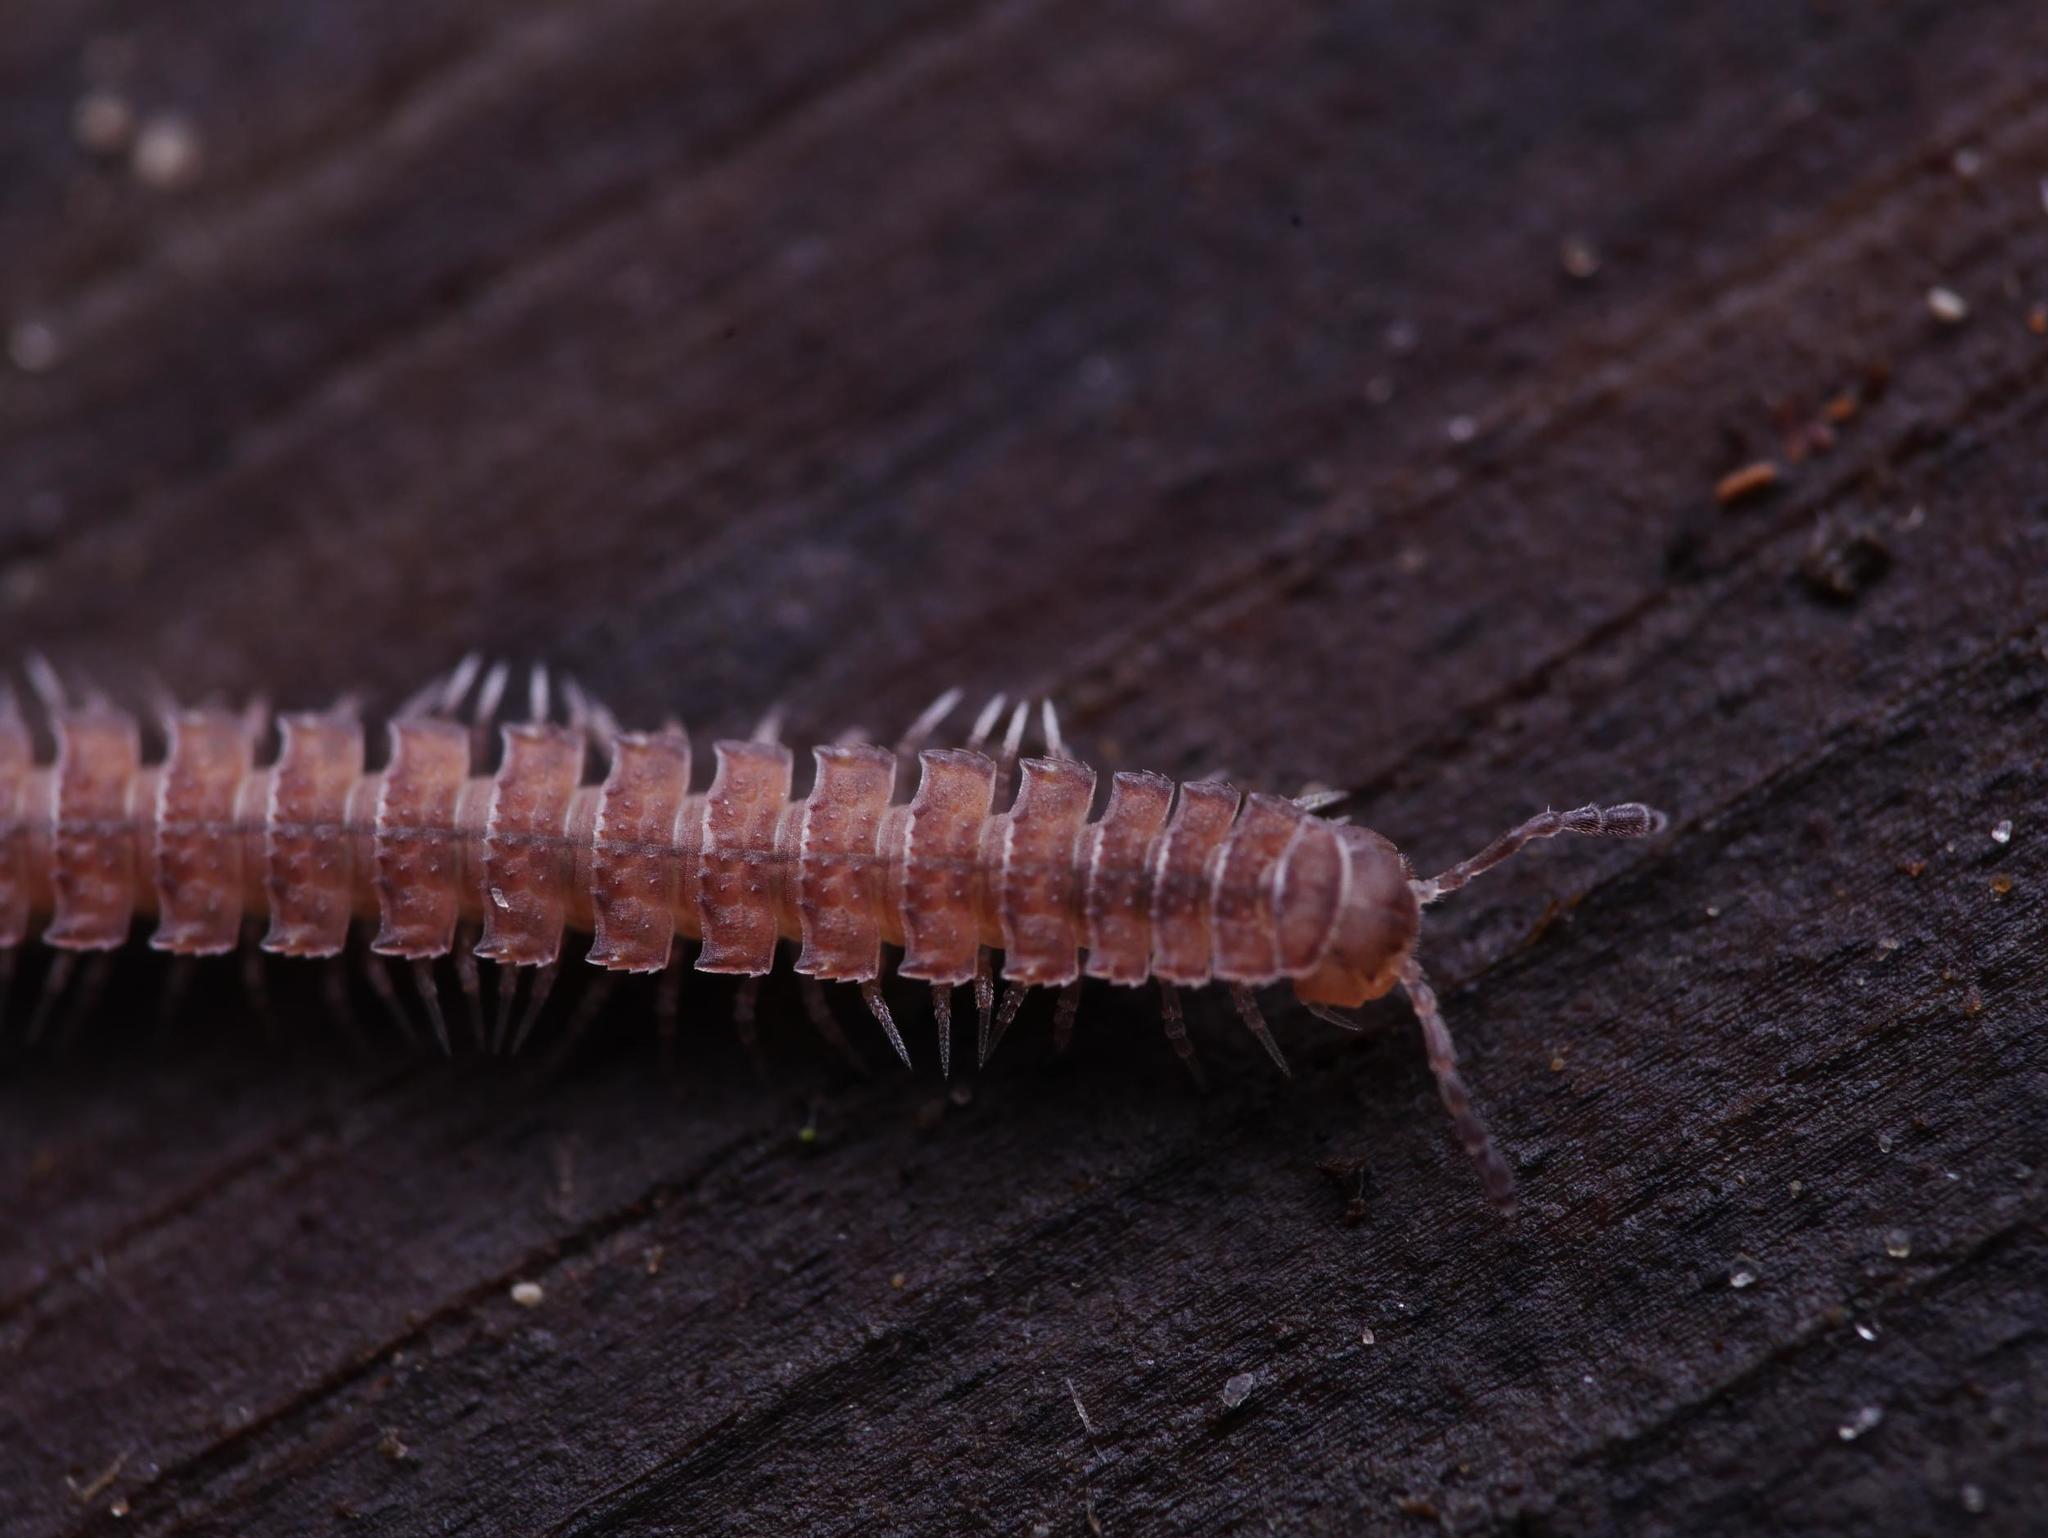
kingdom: Animalia
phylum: Arthropoda
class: Diplopoda
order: Polydesmida
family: Polydesmidae
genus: Polydesmus
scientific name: Polydesmus angustus
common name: Flat millipede
